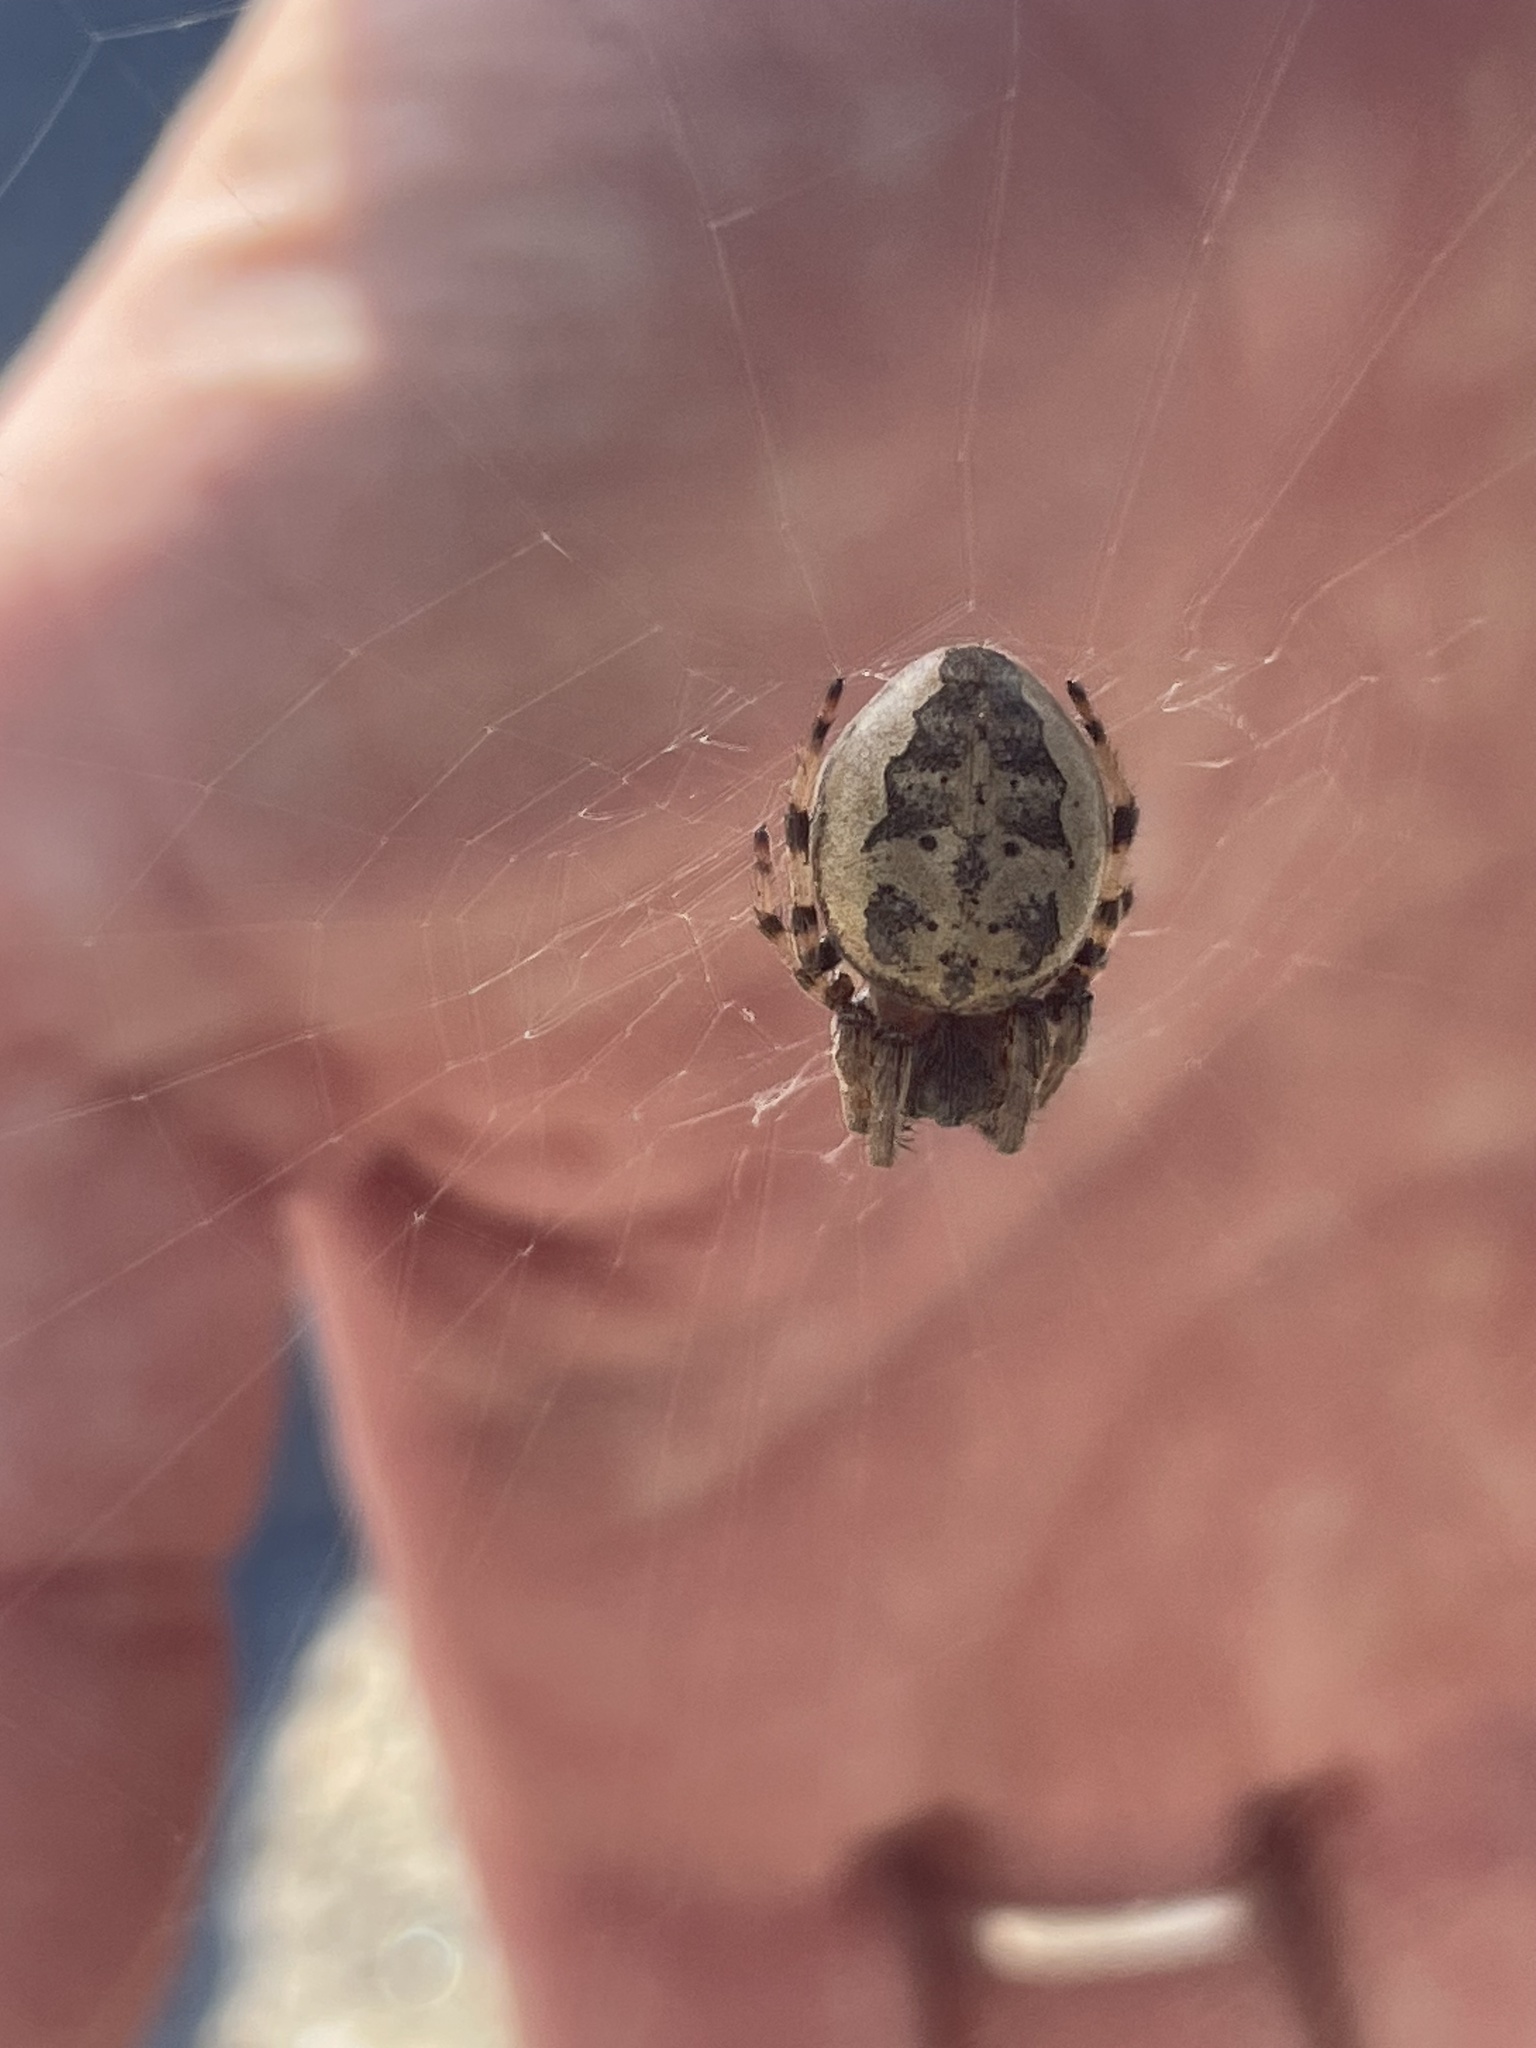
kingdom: Animalia
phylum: Arthropoda
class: Arachnida
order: Araneae
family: Araneidae
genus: Larinioides
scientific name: Larinioides cornutus
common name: Furrow orbweaver
